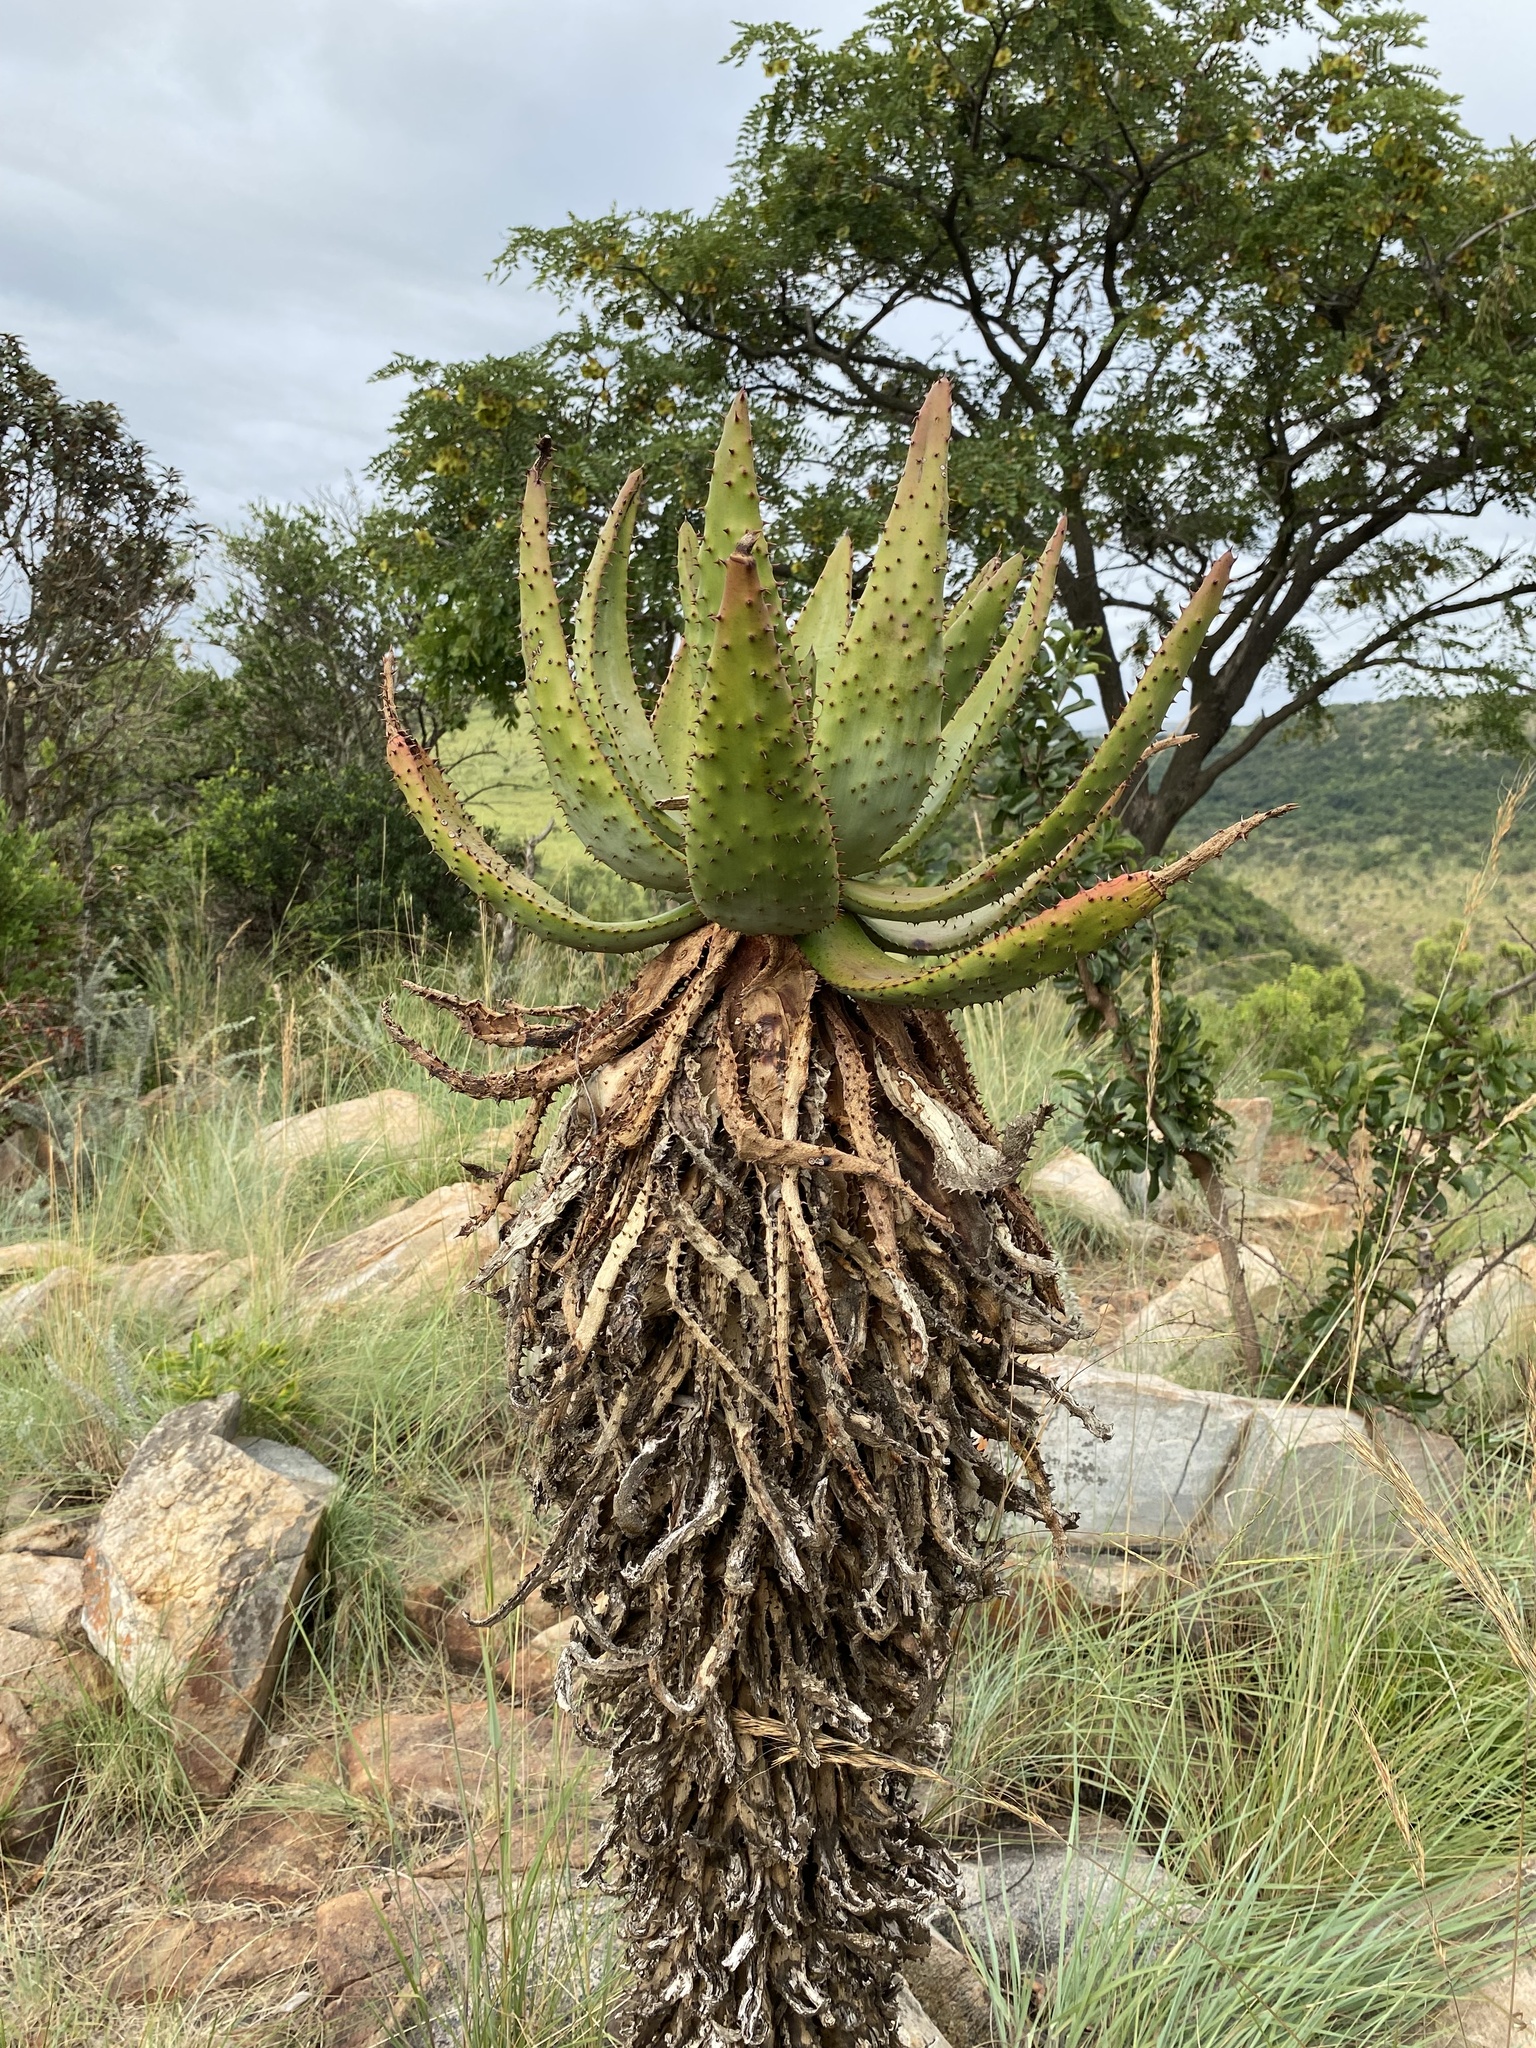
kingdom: Plantae
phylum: Tracheophyta
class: Liliopsida
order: Asparagales
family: Asphodelaceae
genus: Aloe
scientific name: Aloe marlothii
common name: Flat-flowered aloe
